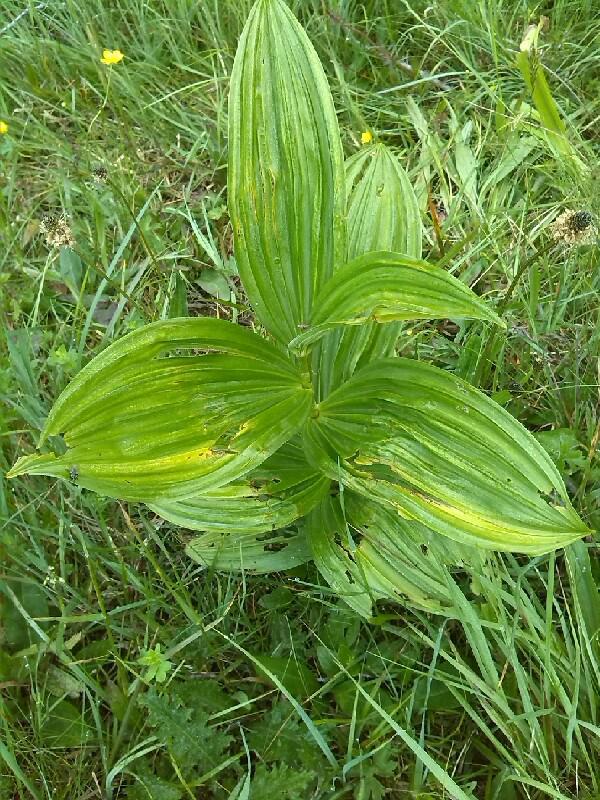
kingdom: Plantae
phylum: Tracheophyta
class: Liliopsida
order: Liliales
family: Melanthiaceae
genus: Veratrum
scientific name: Veratrum album
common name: White veratrum
